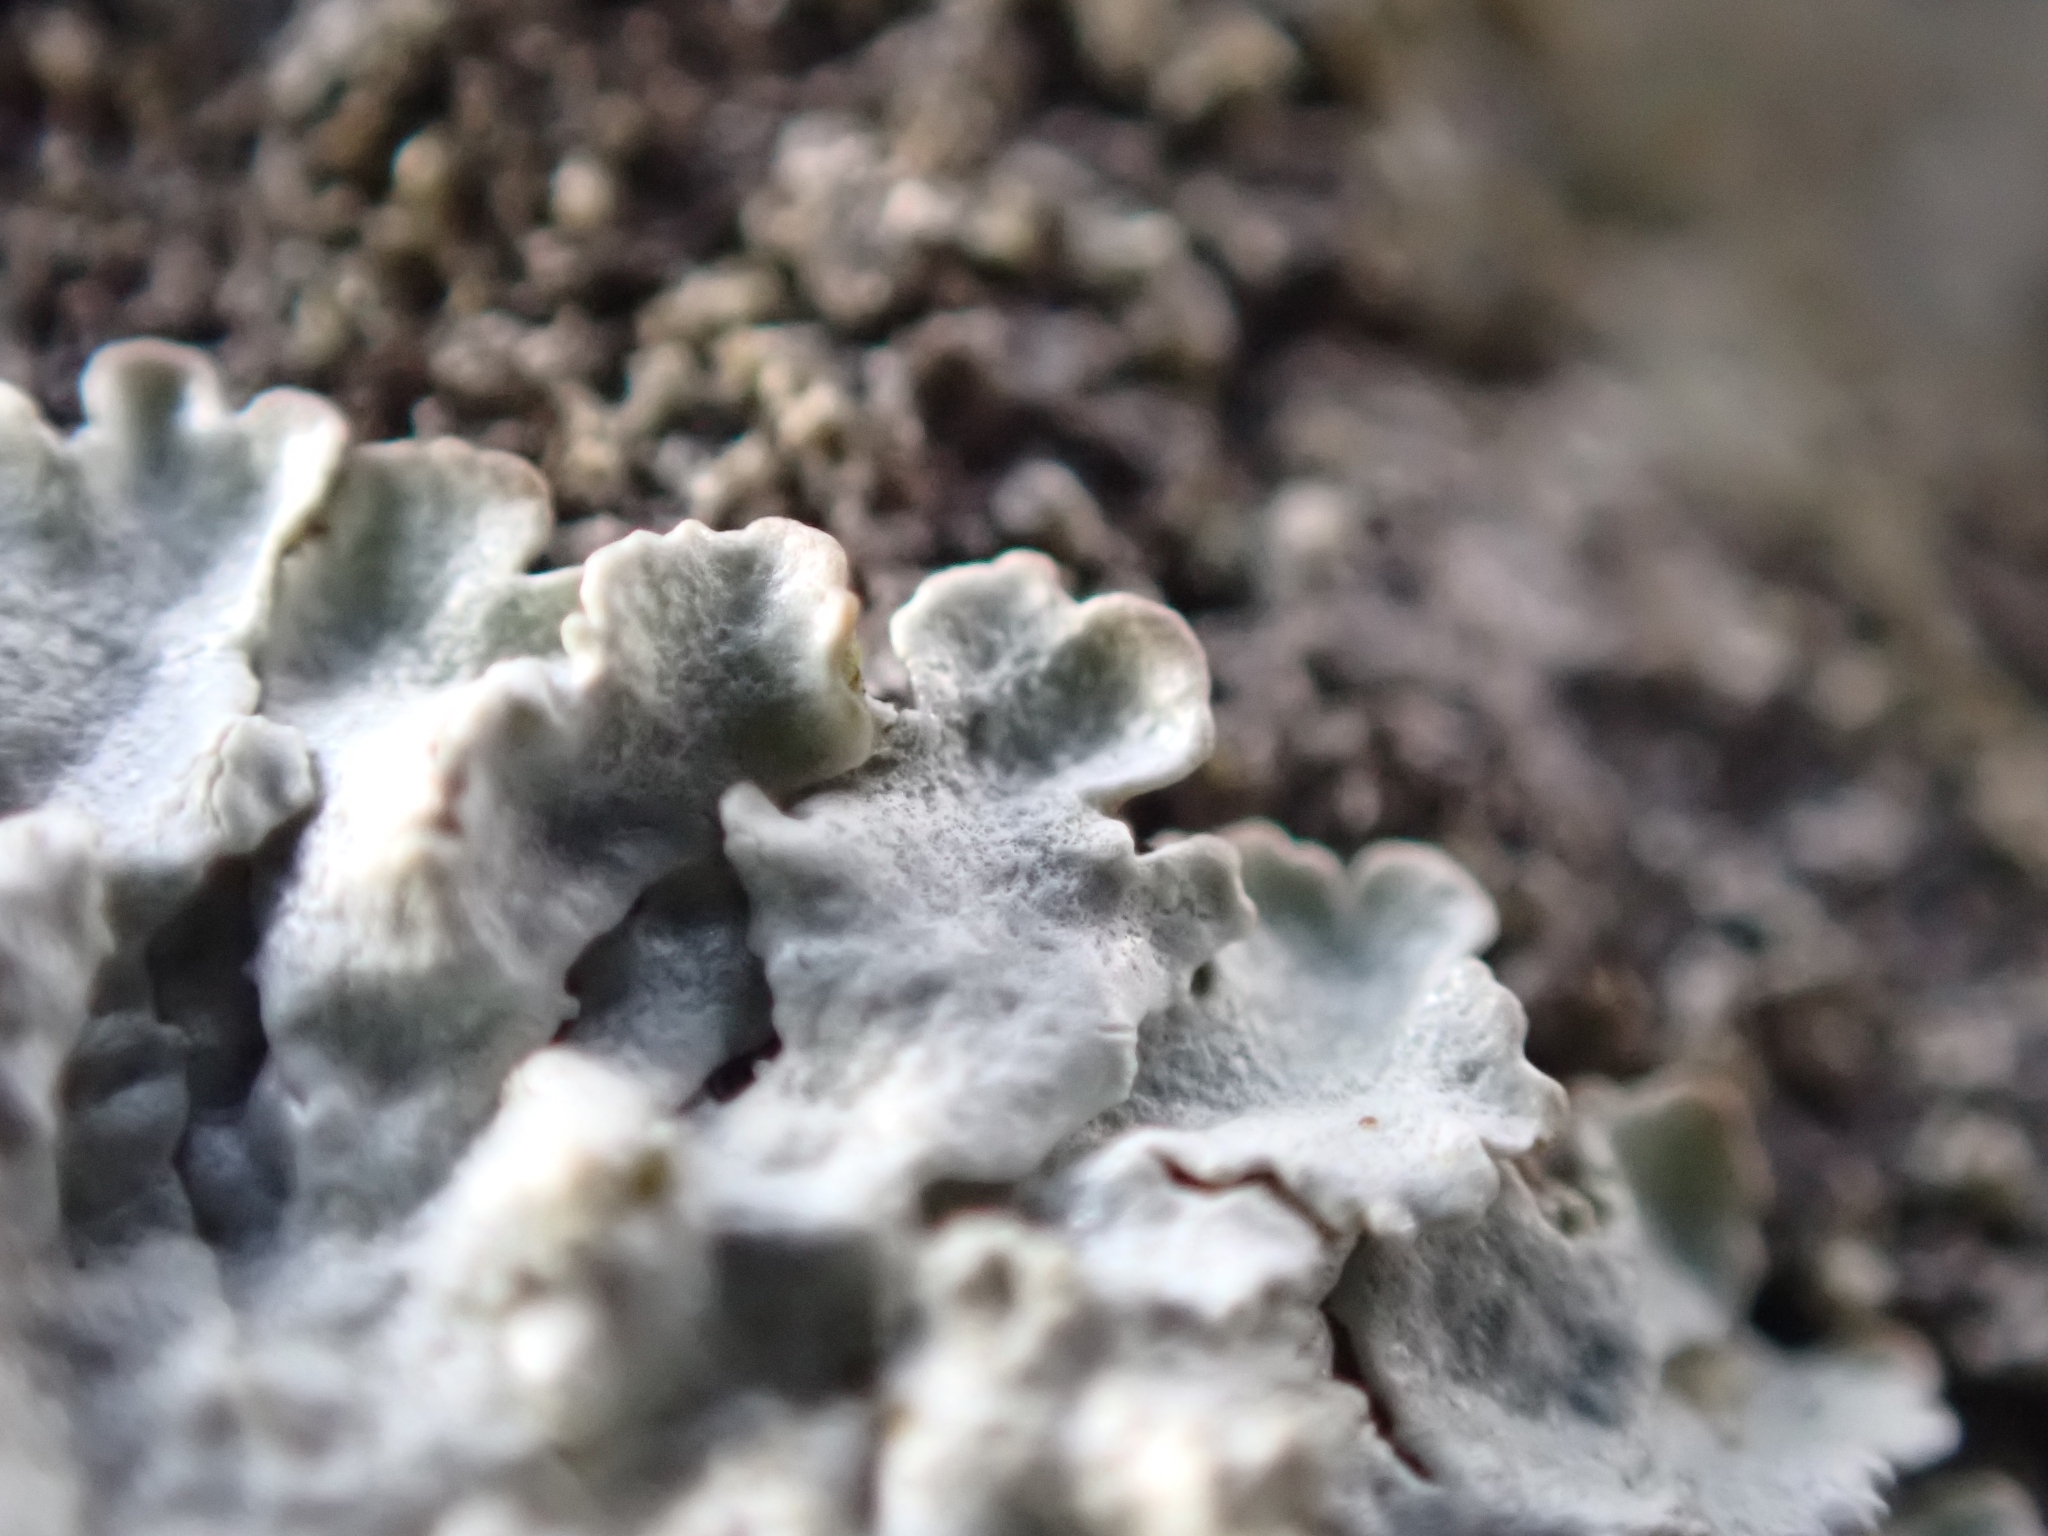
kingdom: Fungi
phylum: Ascomycota
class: Lecanoromycetes
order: Lecanorales
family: Parmeliaceae
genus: Imshaugia
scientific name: Imshaugia aleurites
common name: Salted starburst lichen
